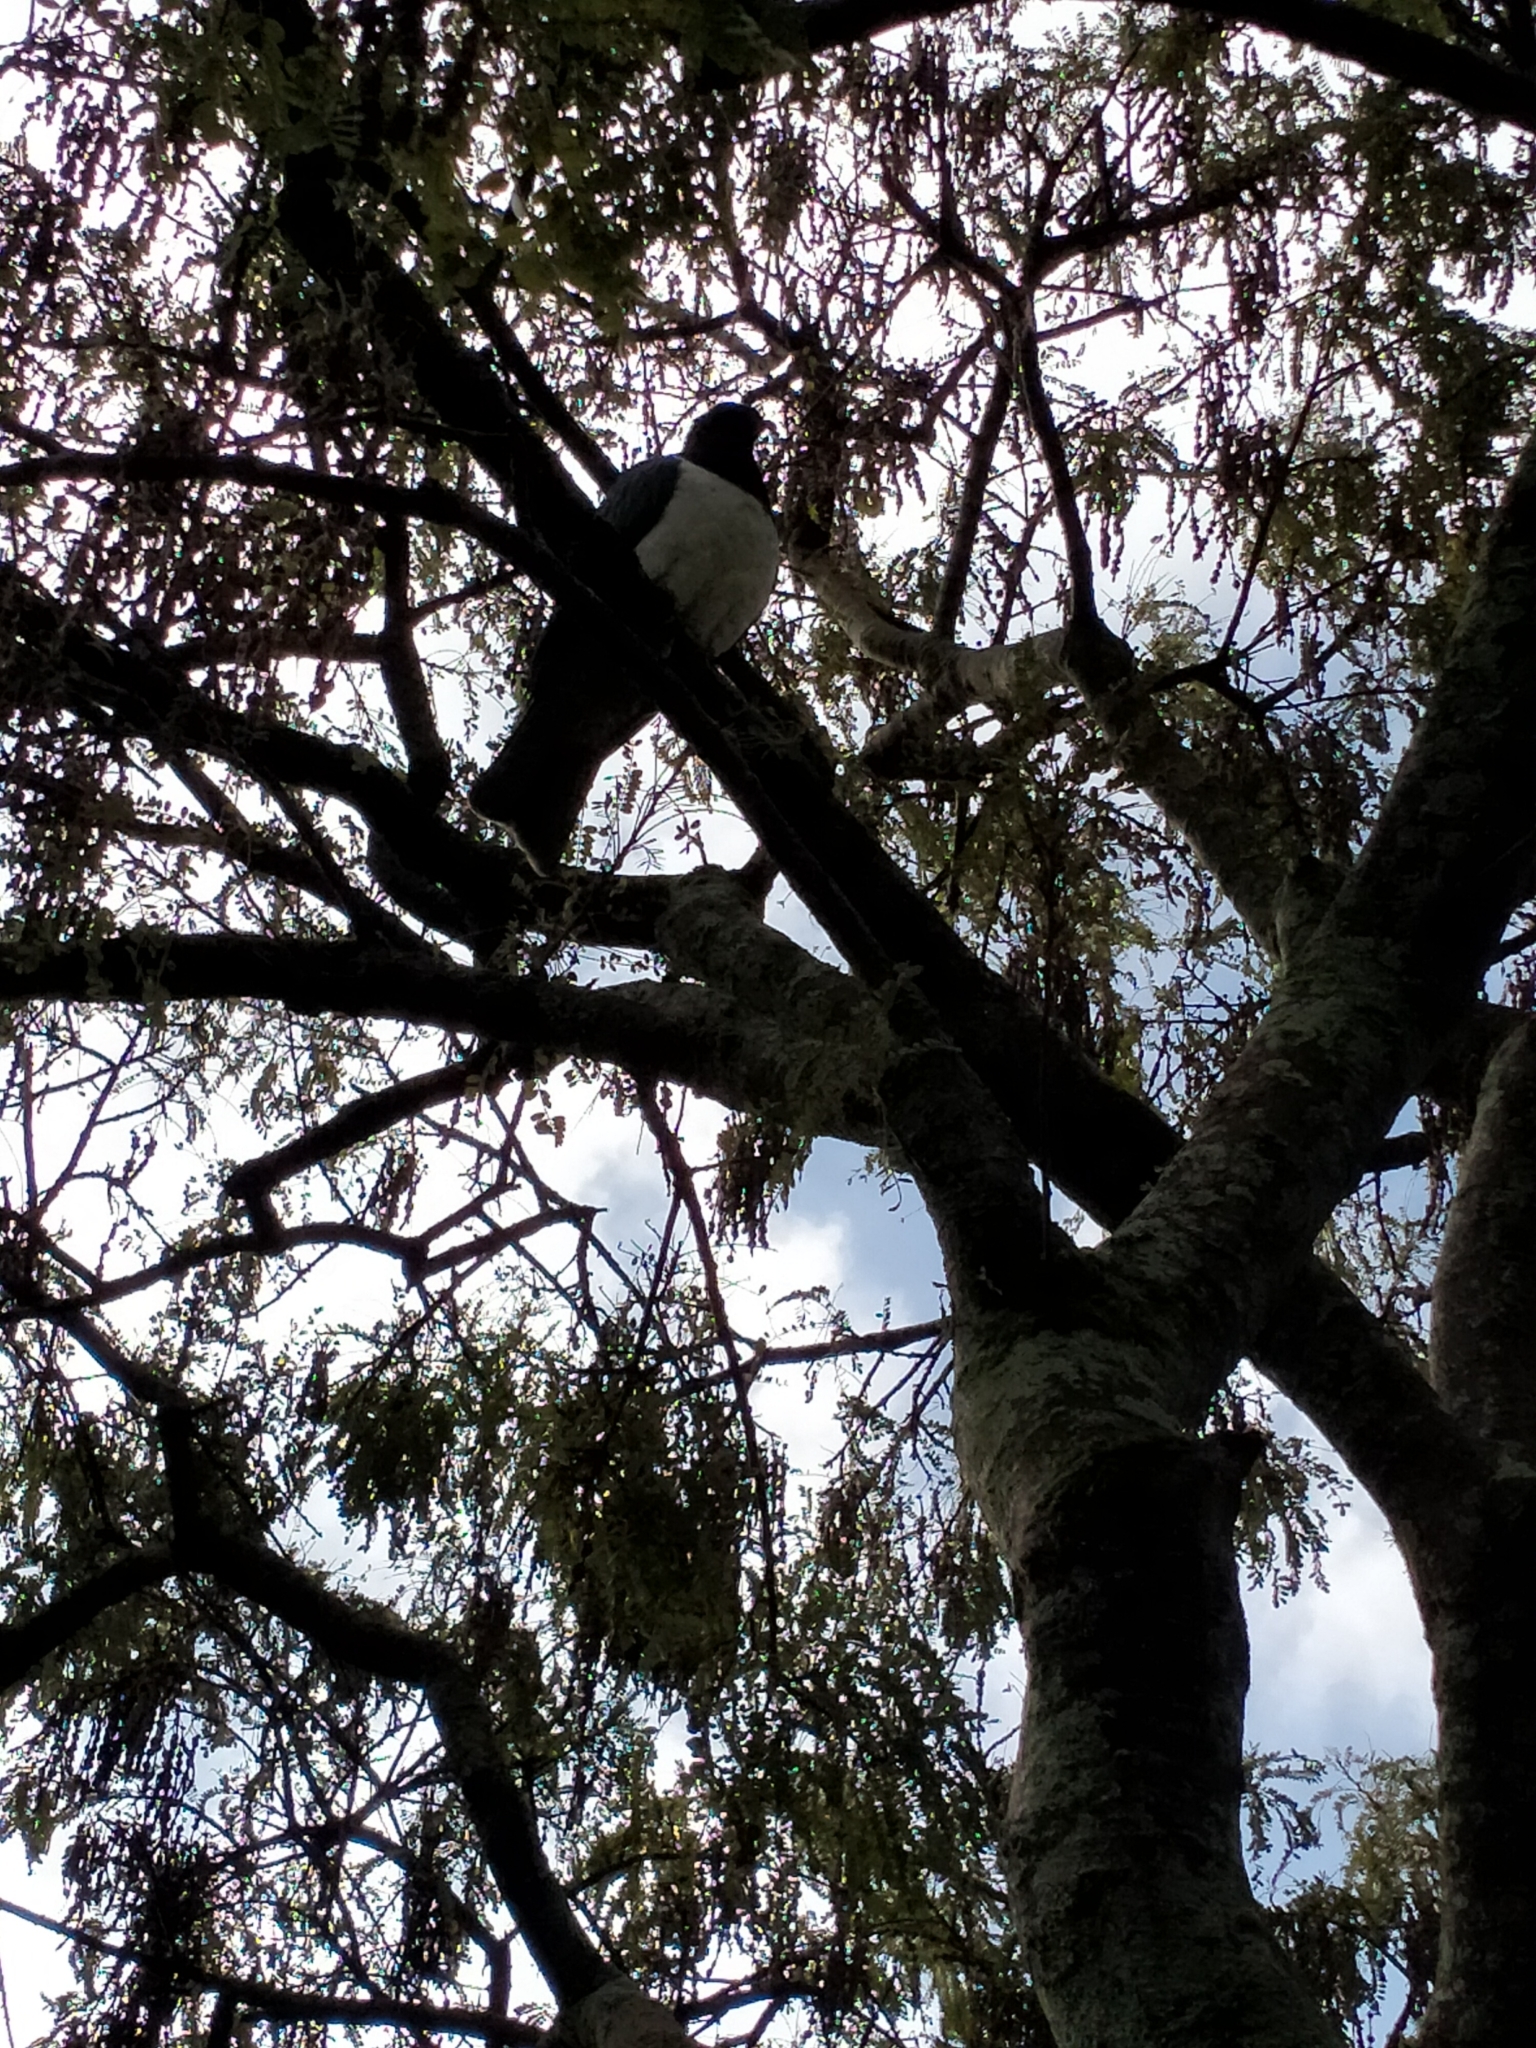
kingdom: Animalia
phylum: Chordata
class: Aves
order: Columbiformes
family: Columbidae
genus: Hemiphaga
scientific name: Hemiphaga novaeseelandiae
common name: New zealand pigeon
